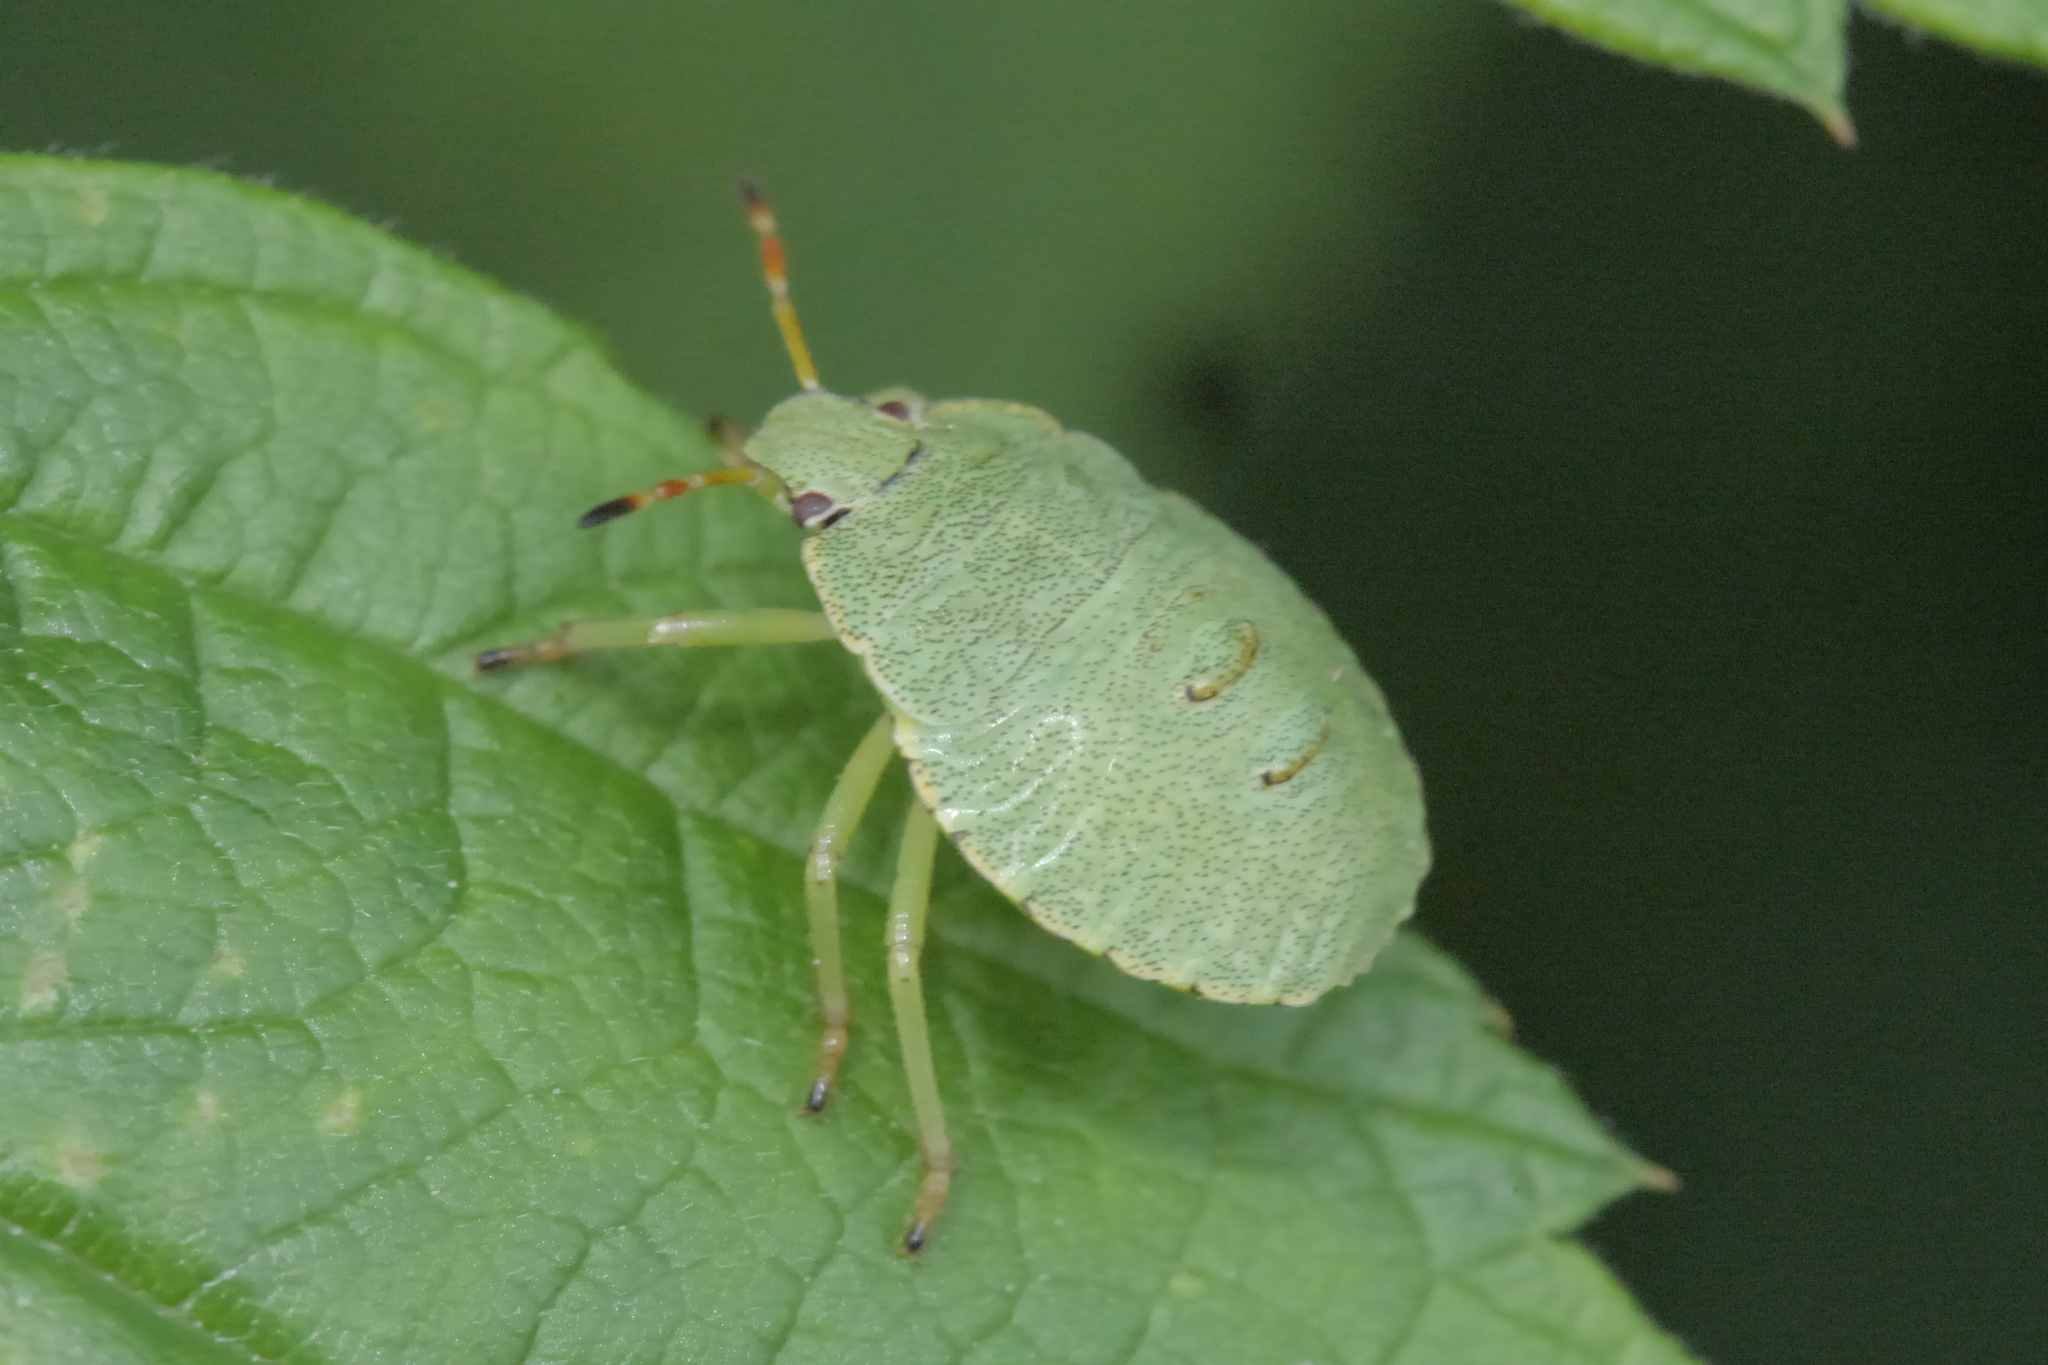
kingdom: Animalia
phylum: Arthropoda
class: Insecta
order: Hemiptera
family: Pentatomidae
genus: Palomena
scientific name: Palomena prasina
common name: Green shieldbug
